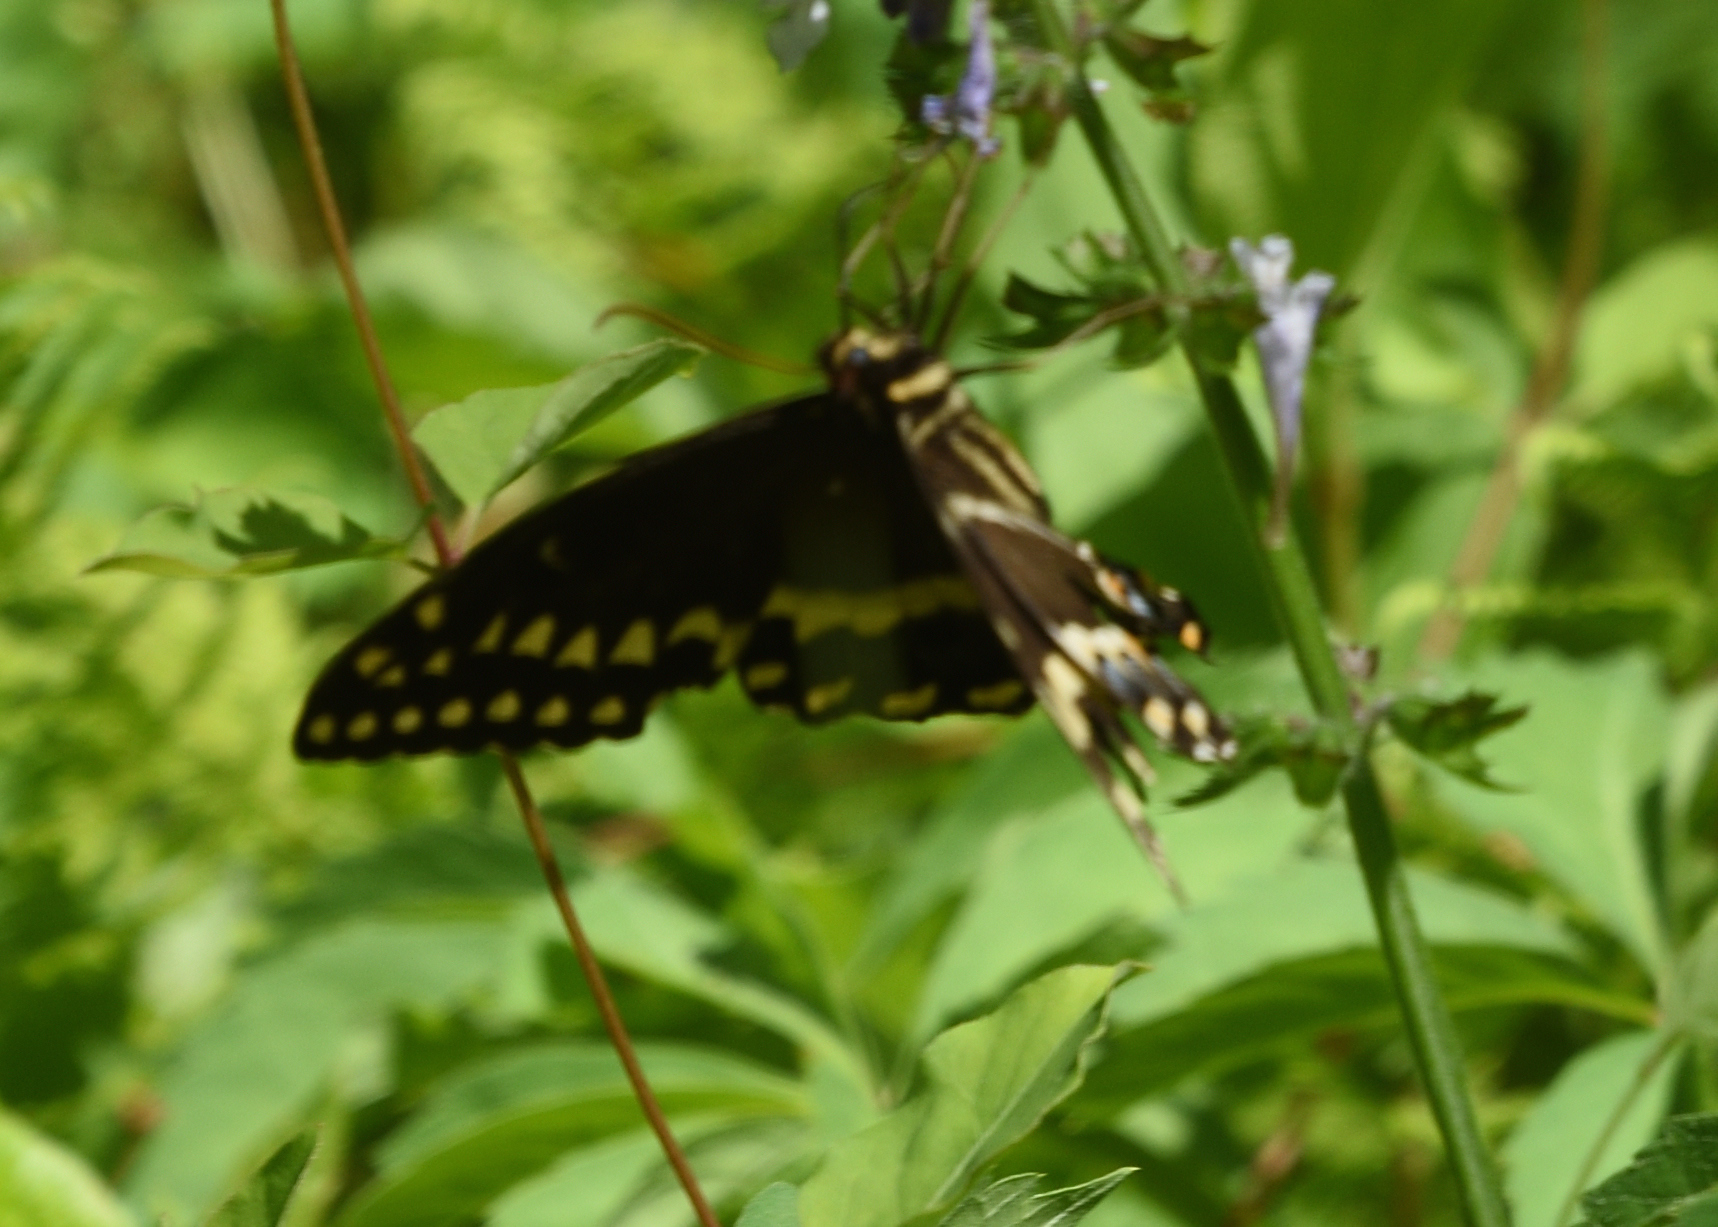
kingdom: Animalia
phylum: Arthropoda
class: Insecta
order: Lepidoptera
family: Papilionidae
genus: Papilio
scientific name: Papilio palamedes
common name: Palamedes swallowtail
